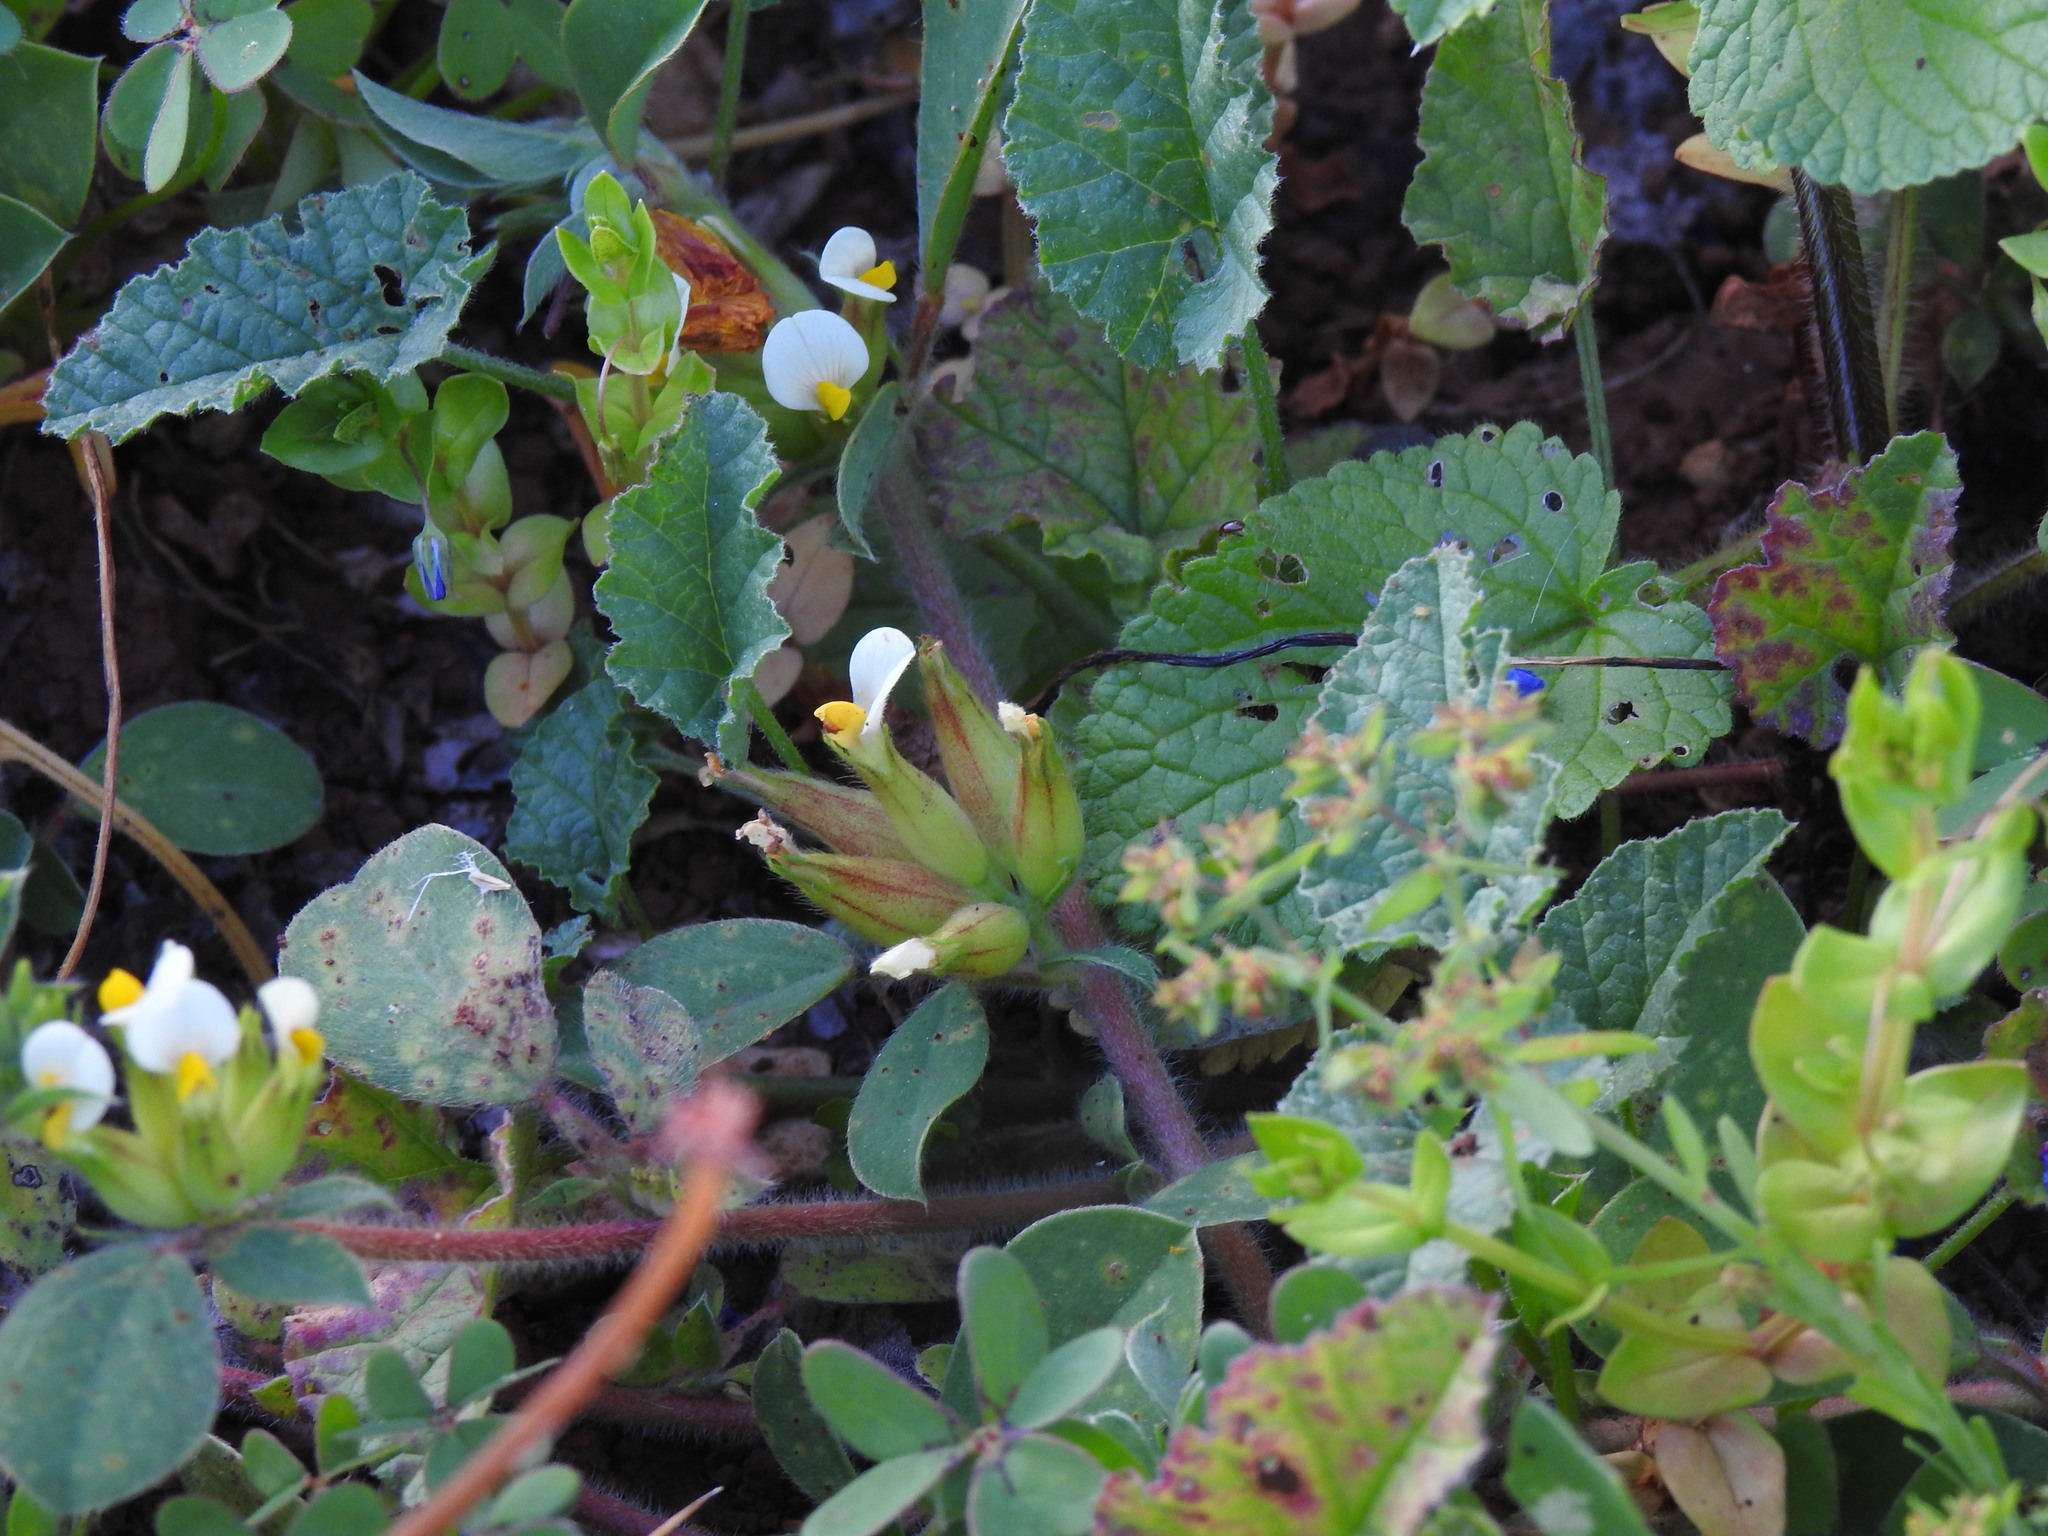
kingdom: Plantae
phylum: Tracheophyta
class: Magnoliopsida
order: Fabales
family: Fabaceae
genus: Tripodion
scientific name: Tripodion tetraphyllum
